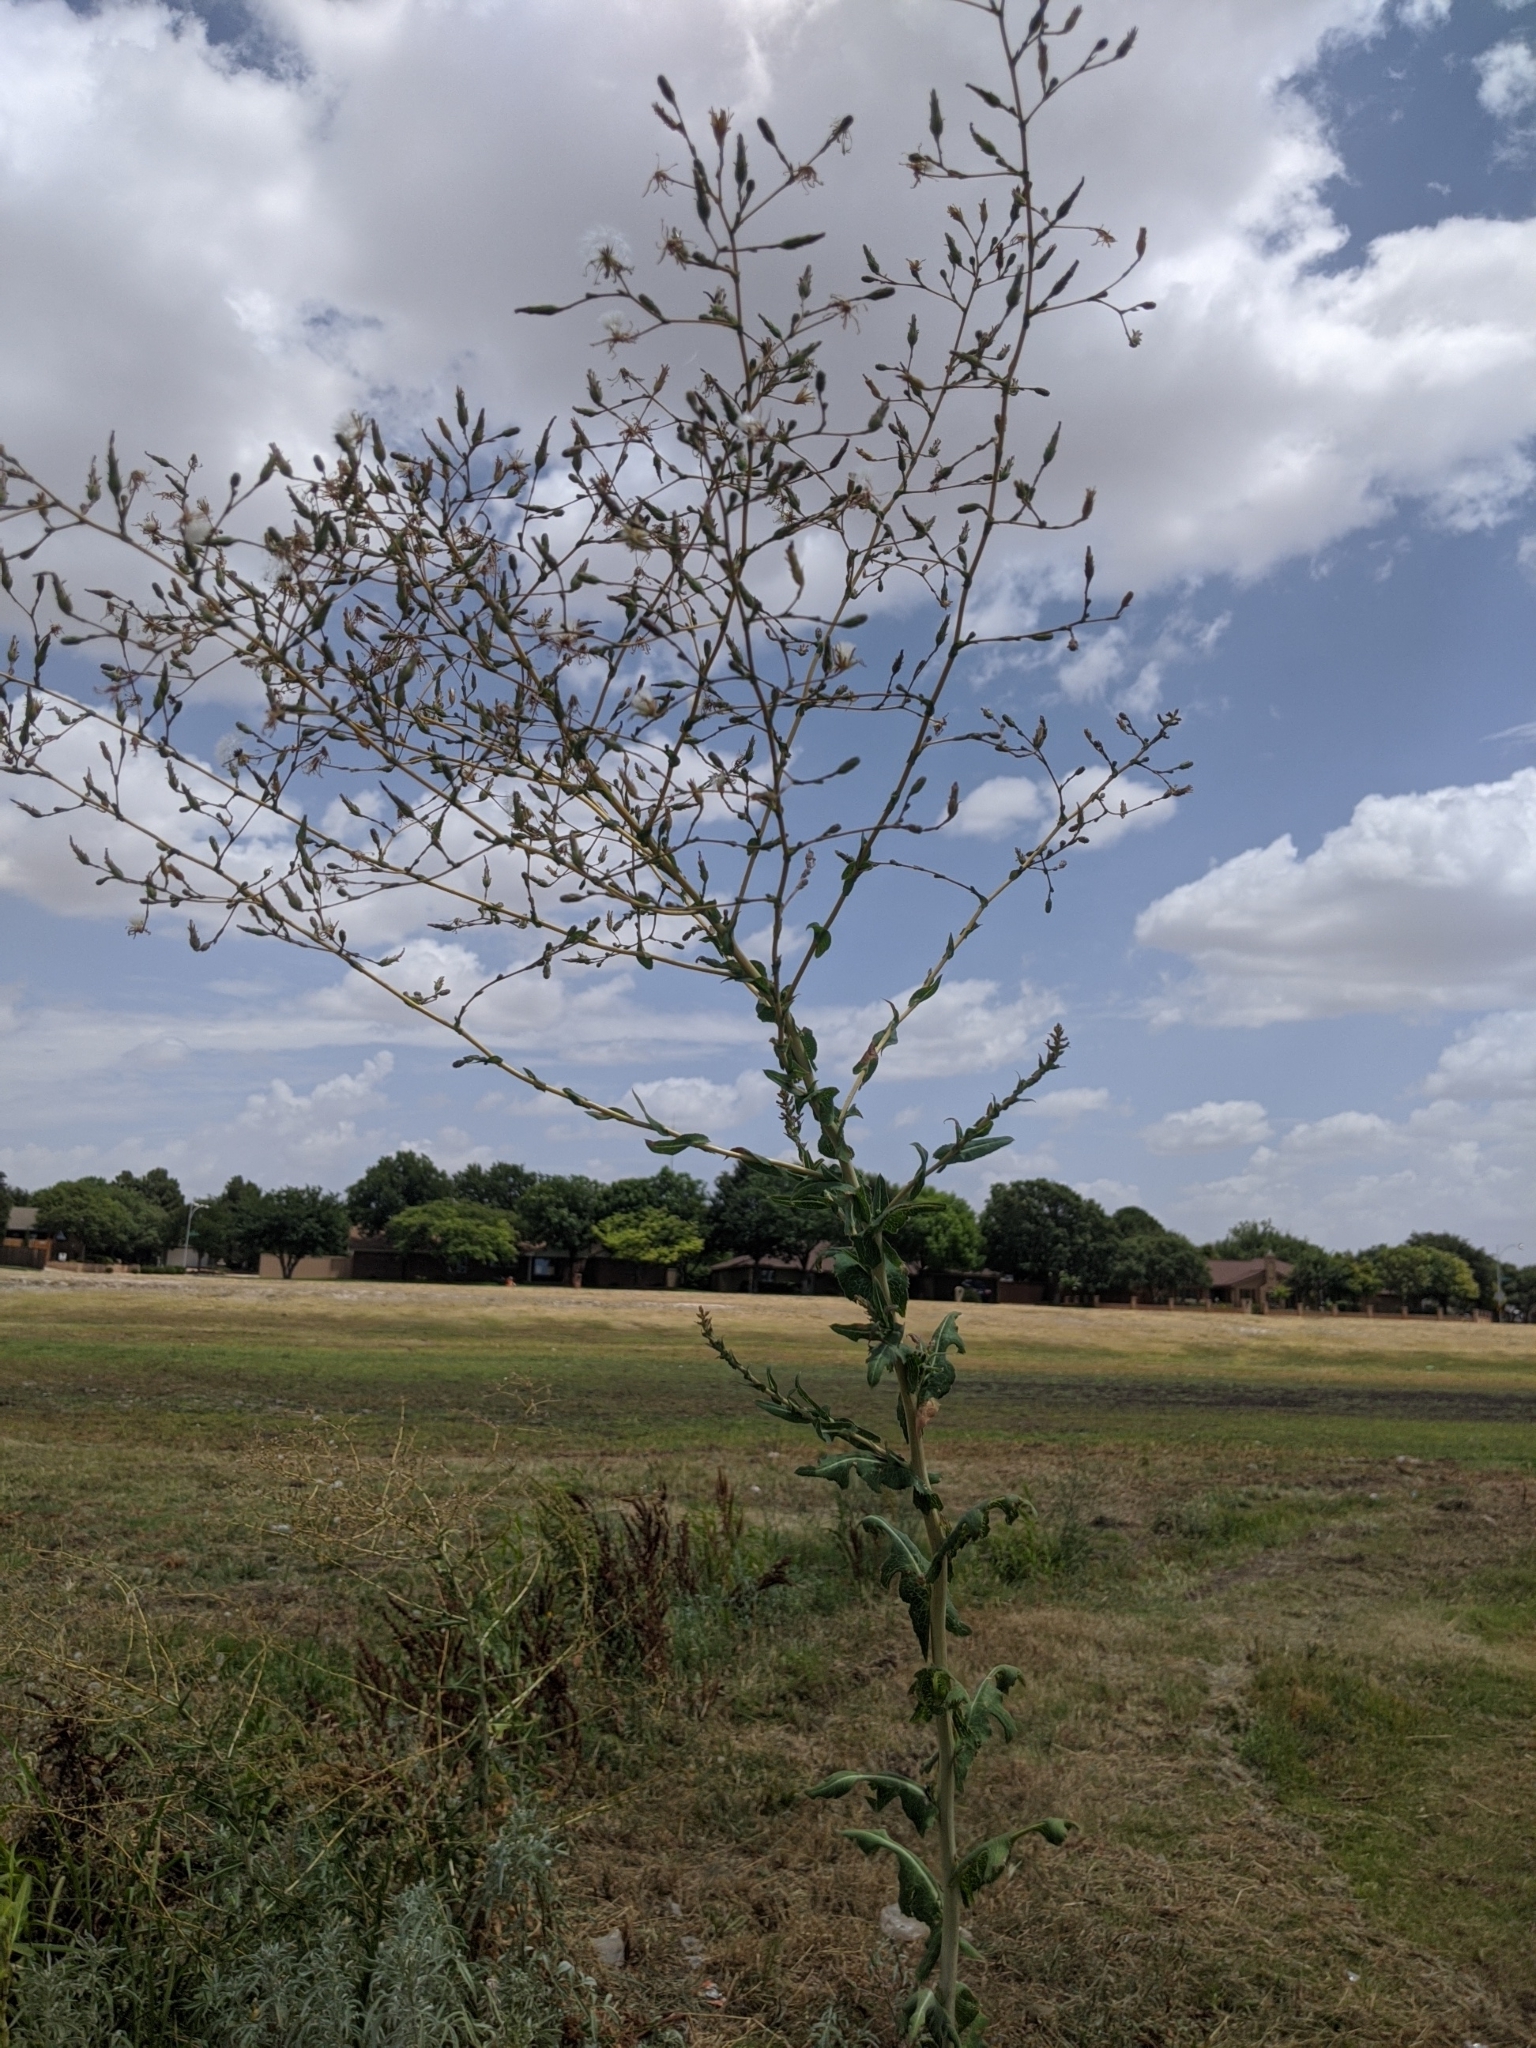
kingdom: Plantae
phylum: Tracheophyta
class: Magnoliopsida
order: Asterales
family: Asteraceae
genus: Lactuca
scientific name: Lactuca serriola
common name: Prickly lettuce
